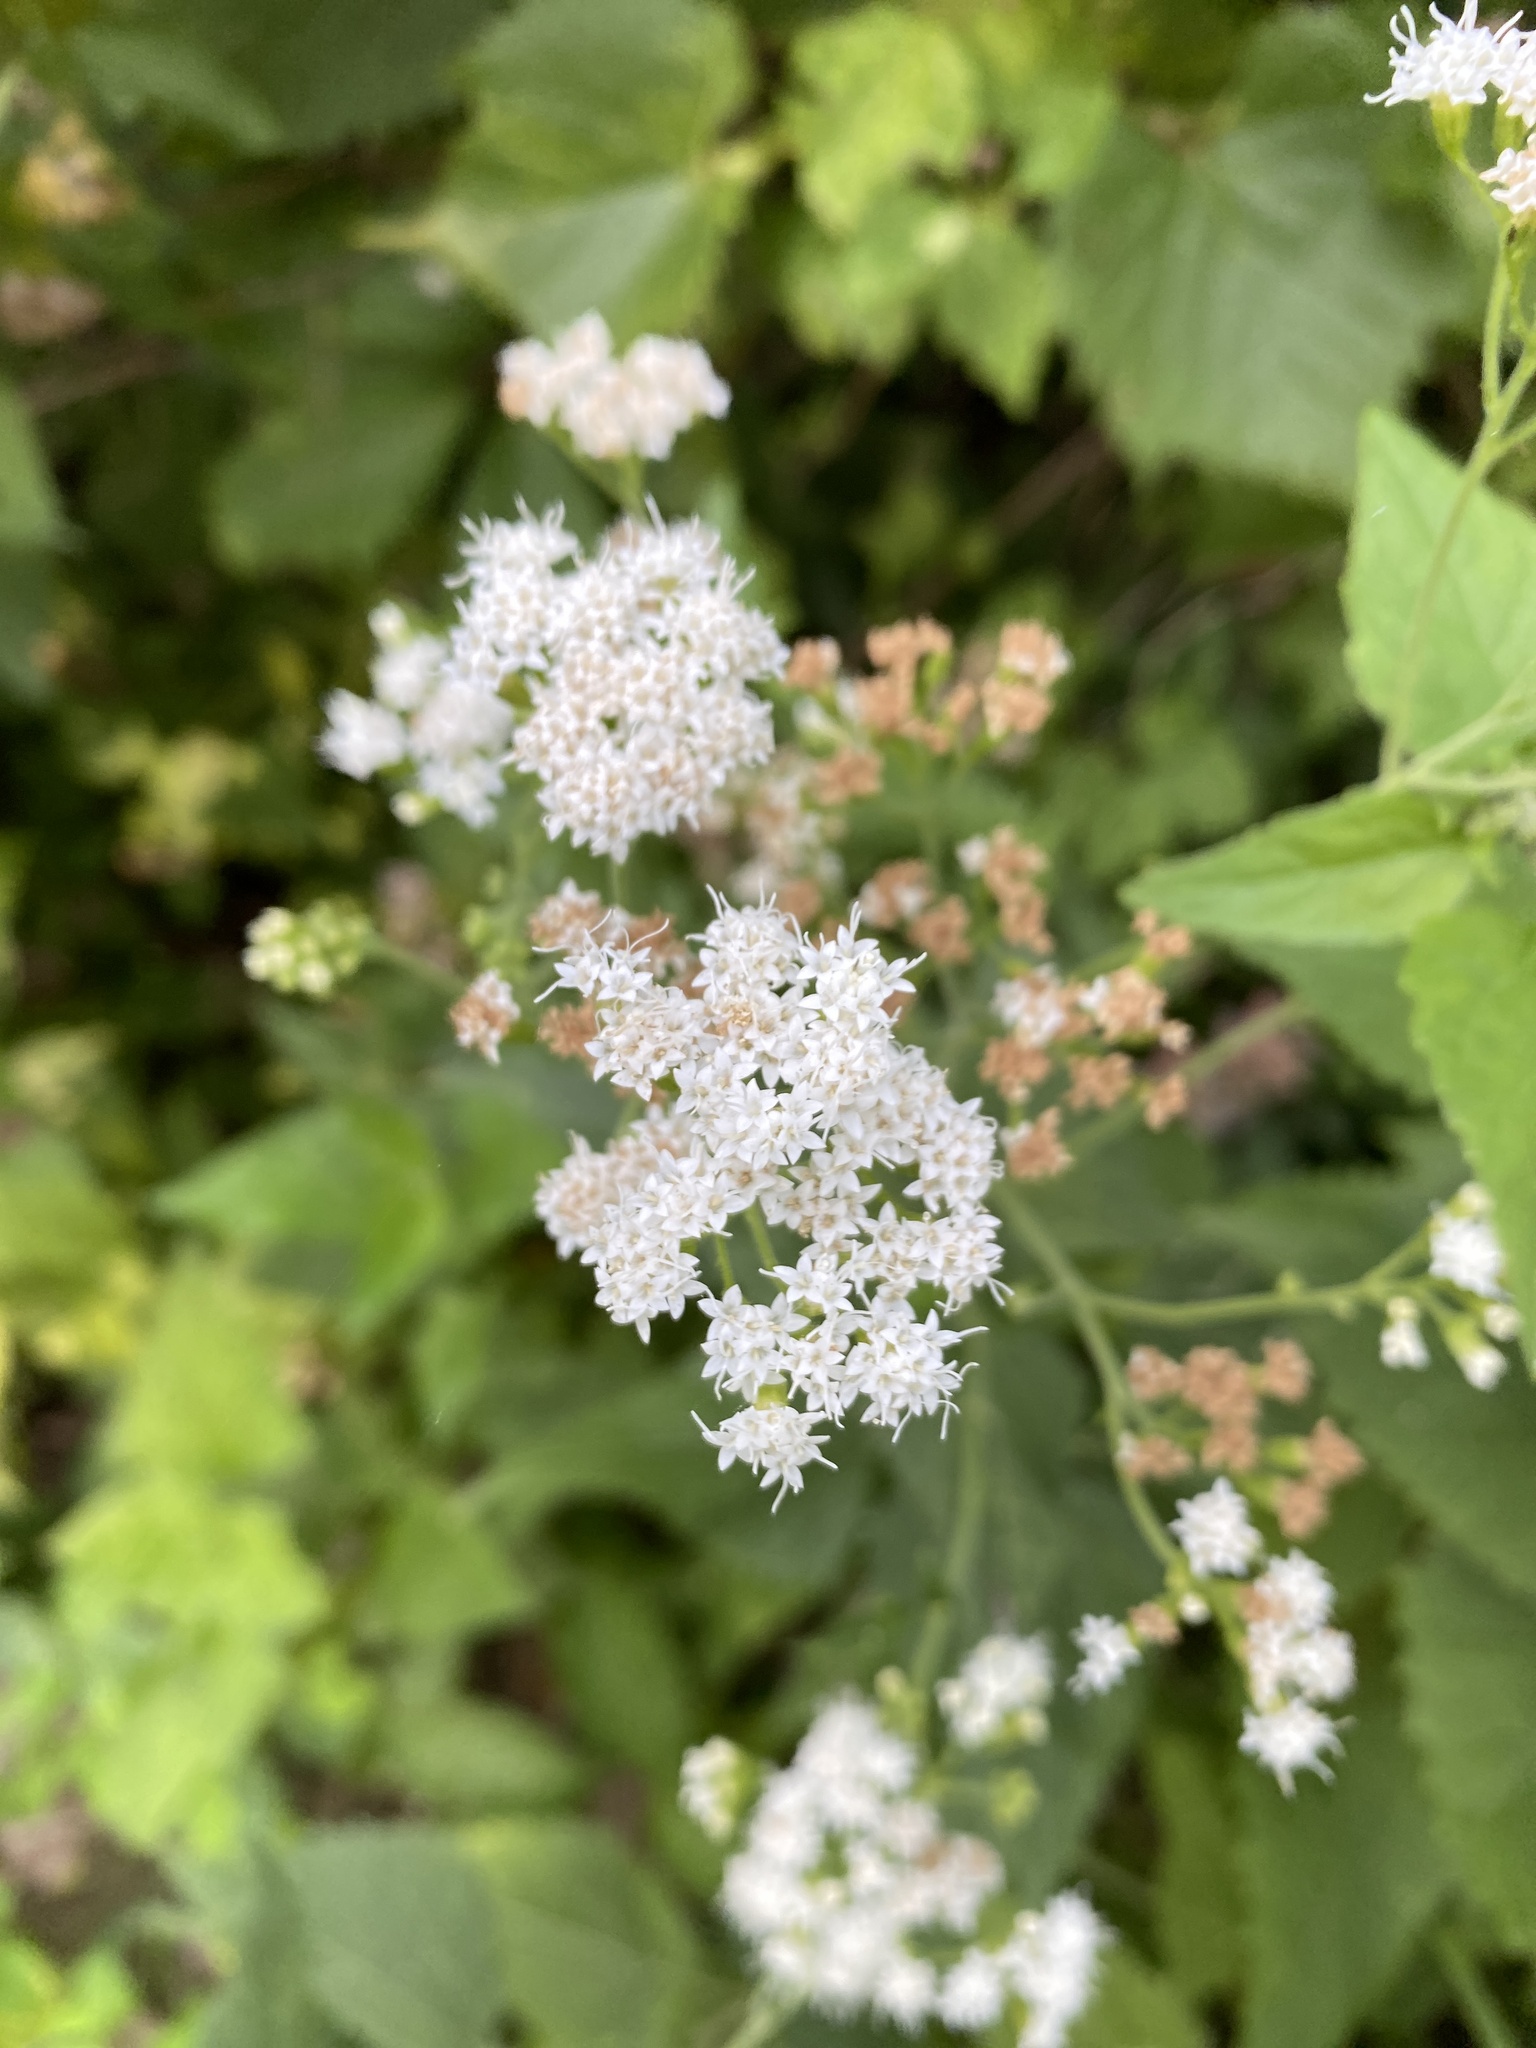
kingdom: Plantae
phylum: Tracheophyta
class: Magnoliopsida
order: Asterales
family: Asteraceae
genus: Ageratina
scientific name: Ageratina altissima
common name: White snakeroot
